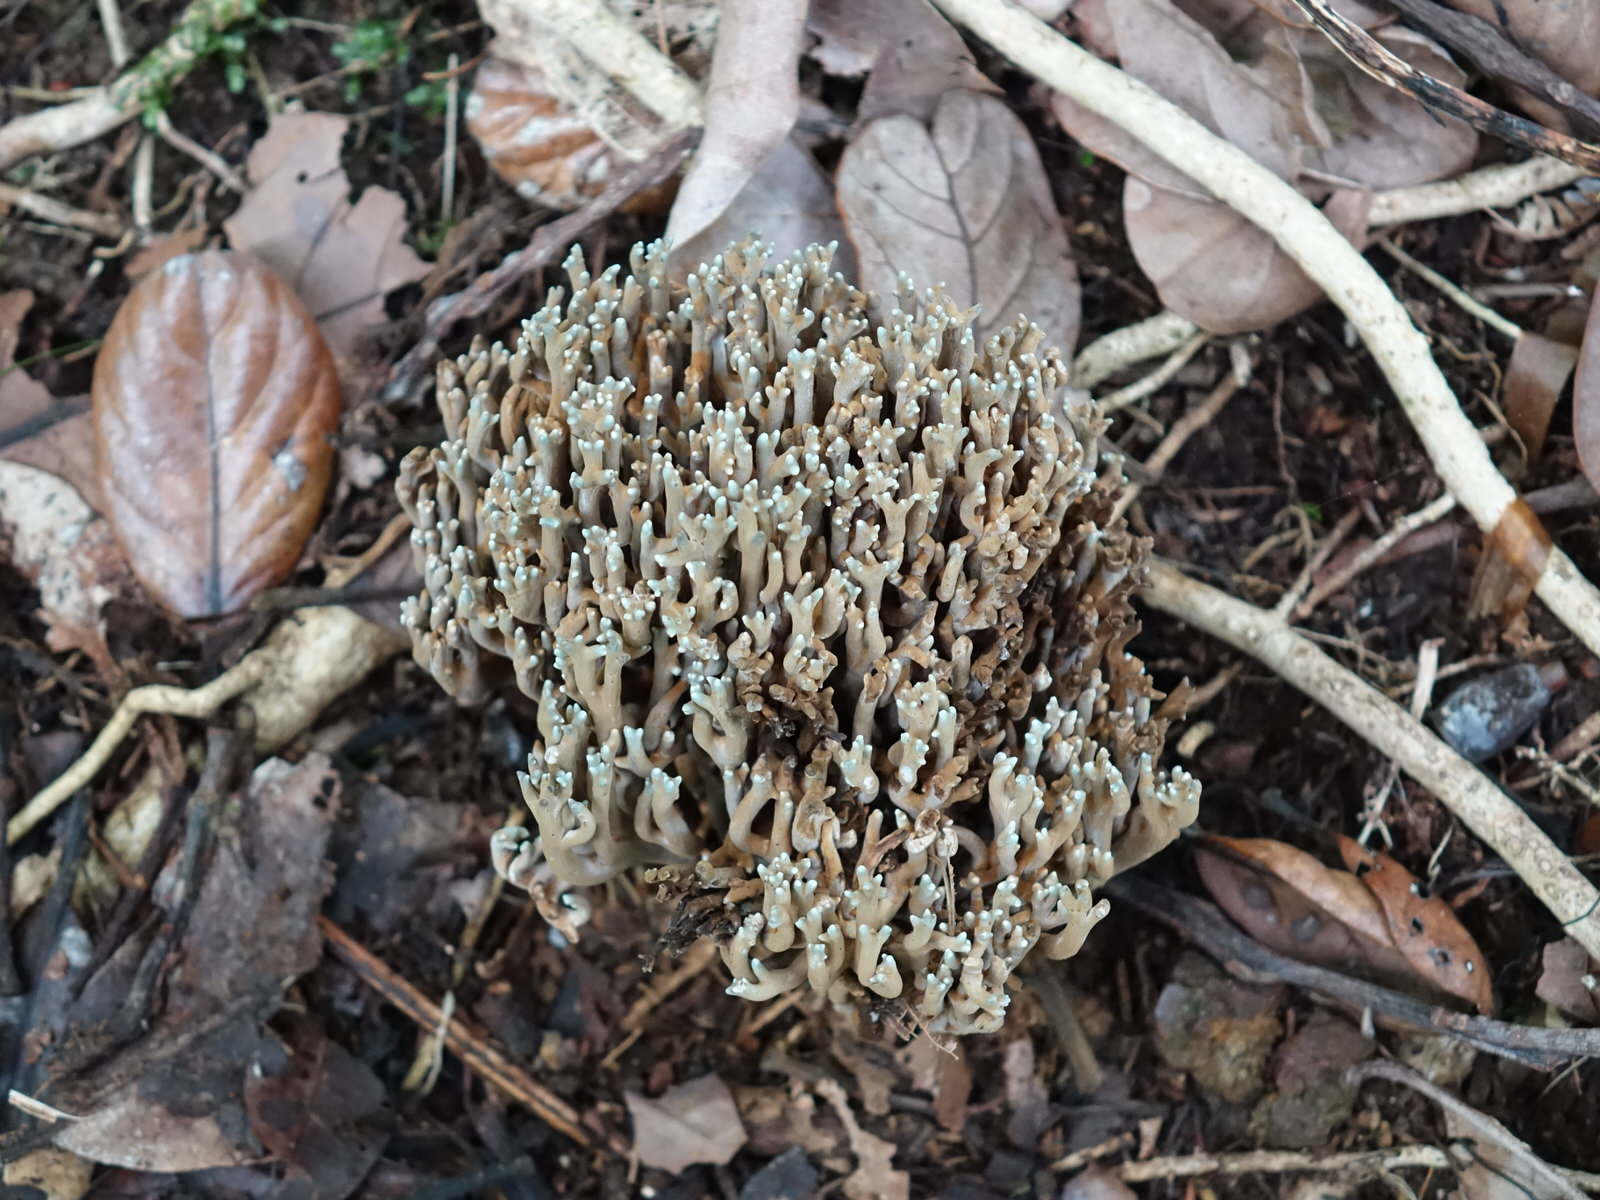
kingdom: Fungi
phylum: Basidiomycota
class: Agaricomycetes
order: Gomphales
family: Gomphaceae
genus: Phaeoclavulina
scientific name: Phaeoclavulina zippelii
